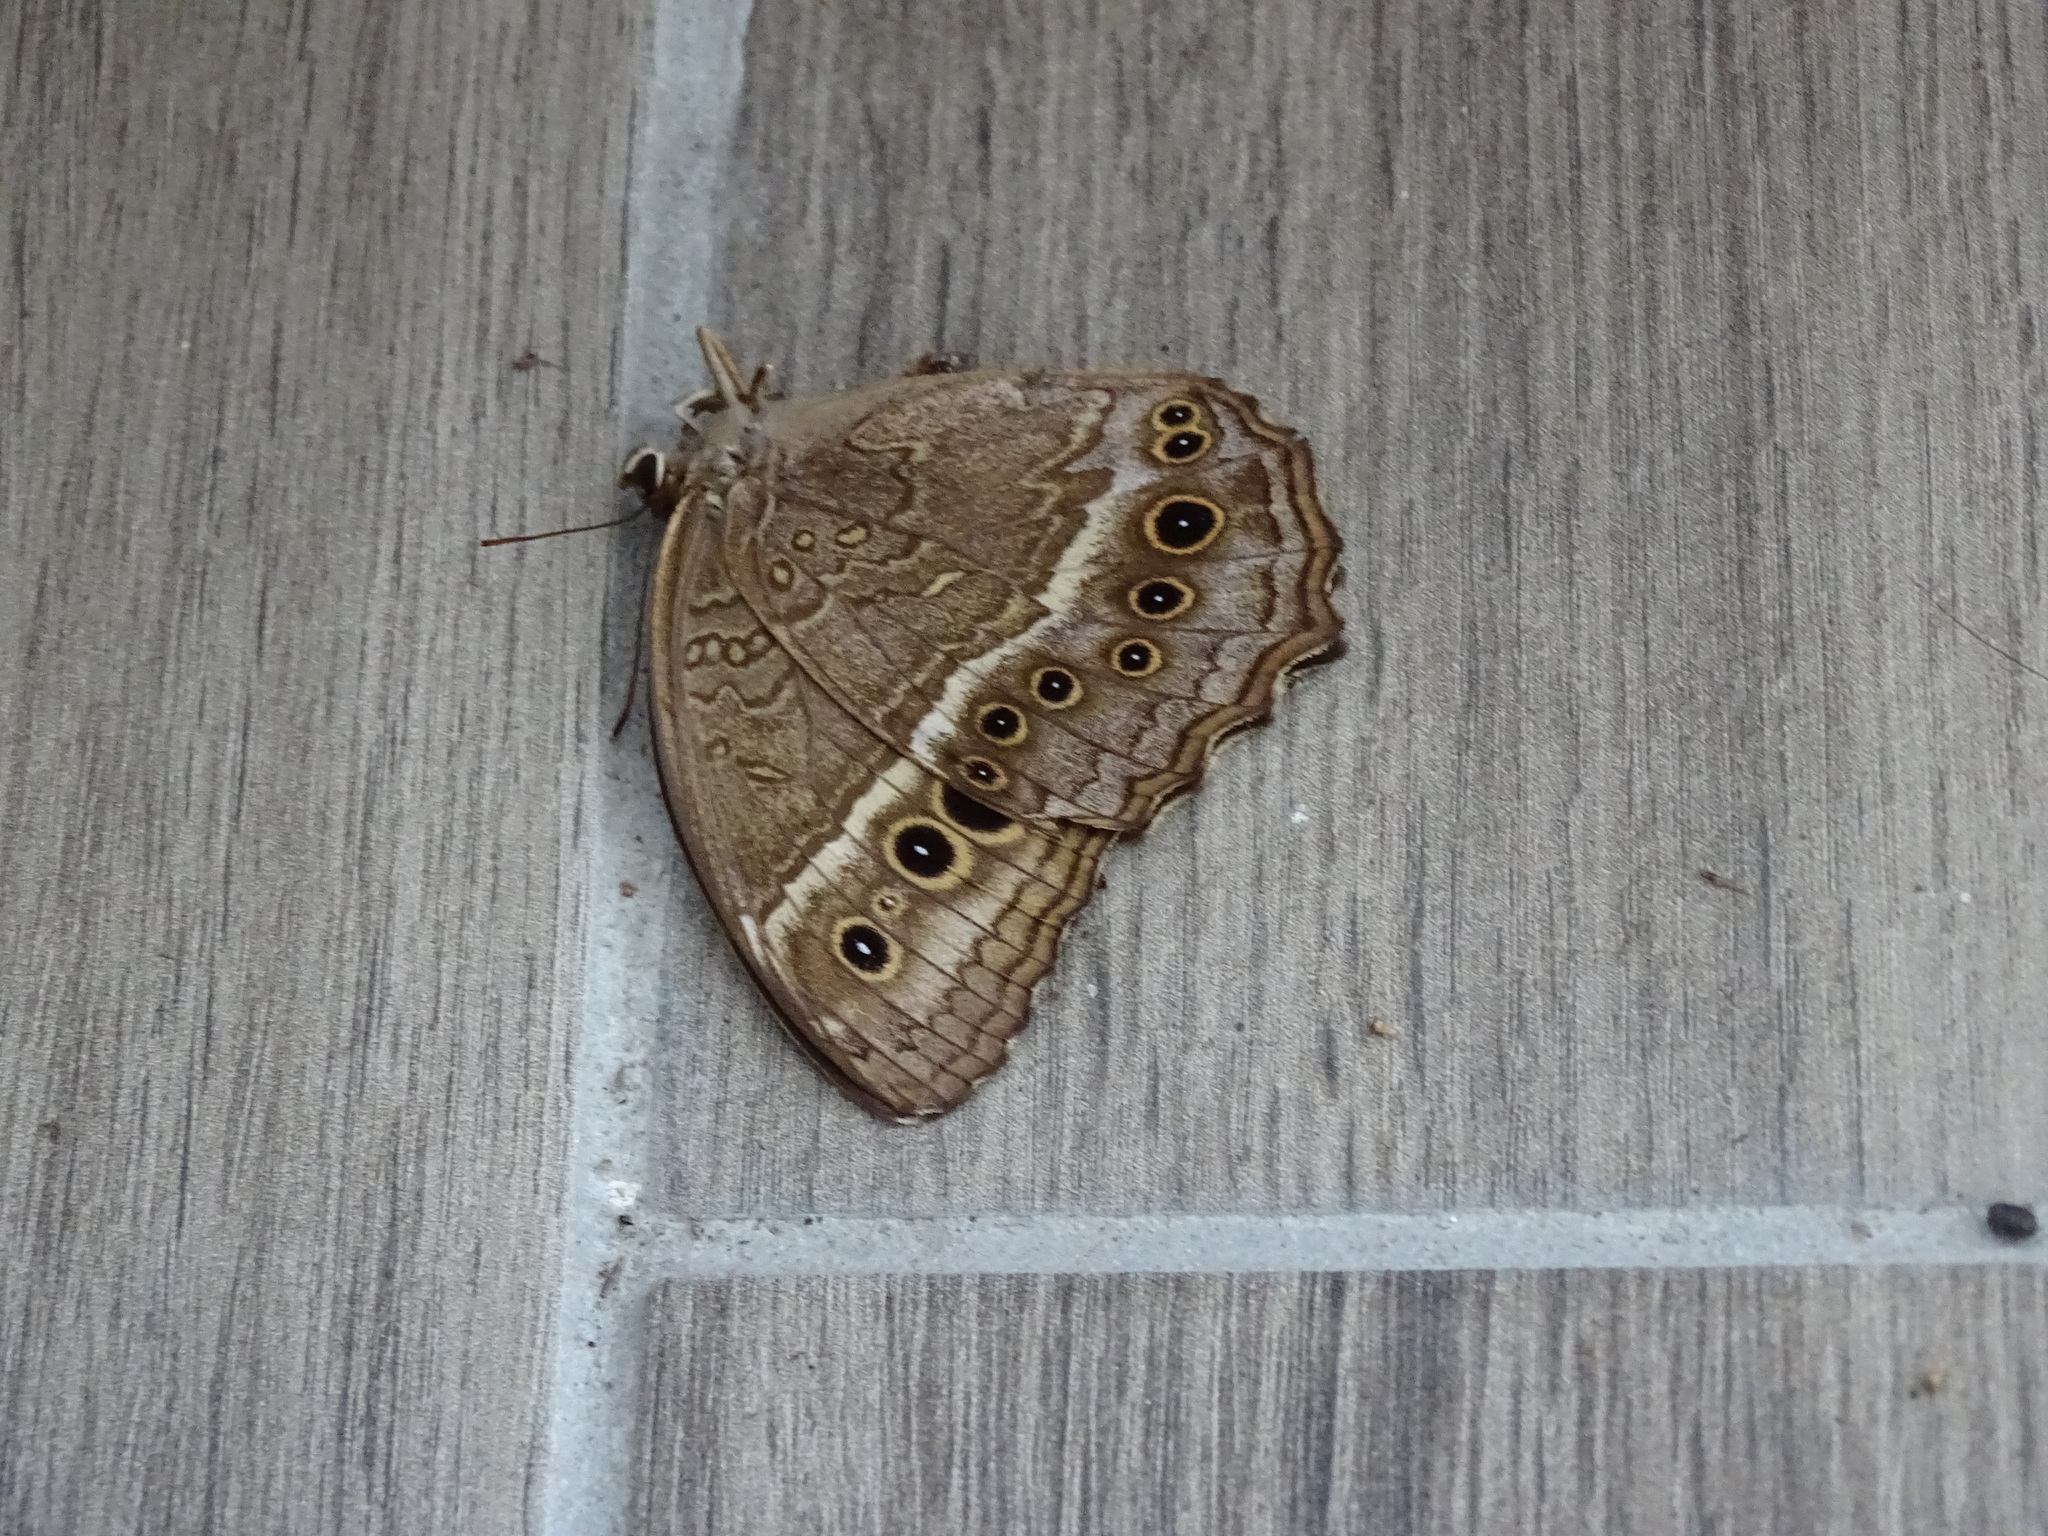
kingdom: Animalia
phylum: Arthropoda
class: Insecta
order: Lepidoptera
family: Nymphalidae
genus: Neope
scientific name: Neope muirheadii
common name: Black-spotted labyrinth
